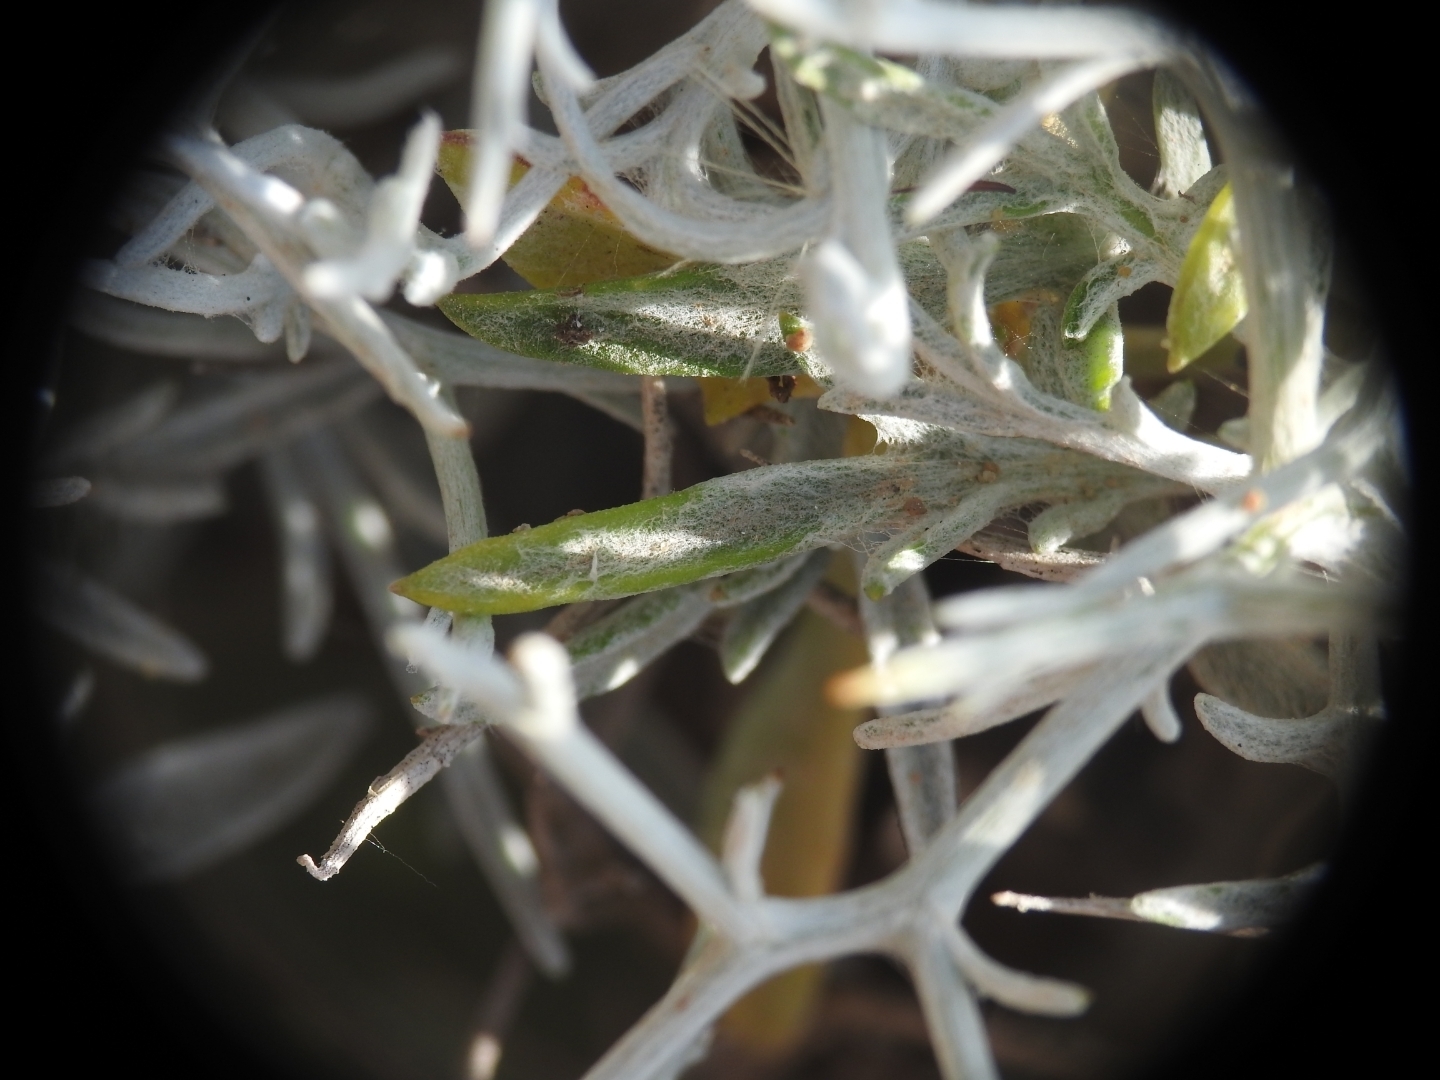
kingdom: Plantae
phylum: Tracheophyta
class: Magnoliopsida
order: Asterales
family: Asteraceae
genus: Centaurea
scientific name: Centaurea spinosa
